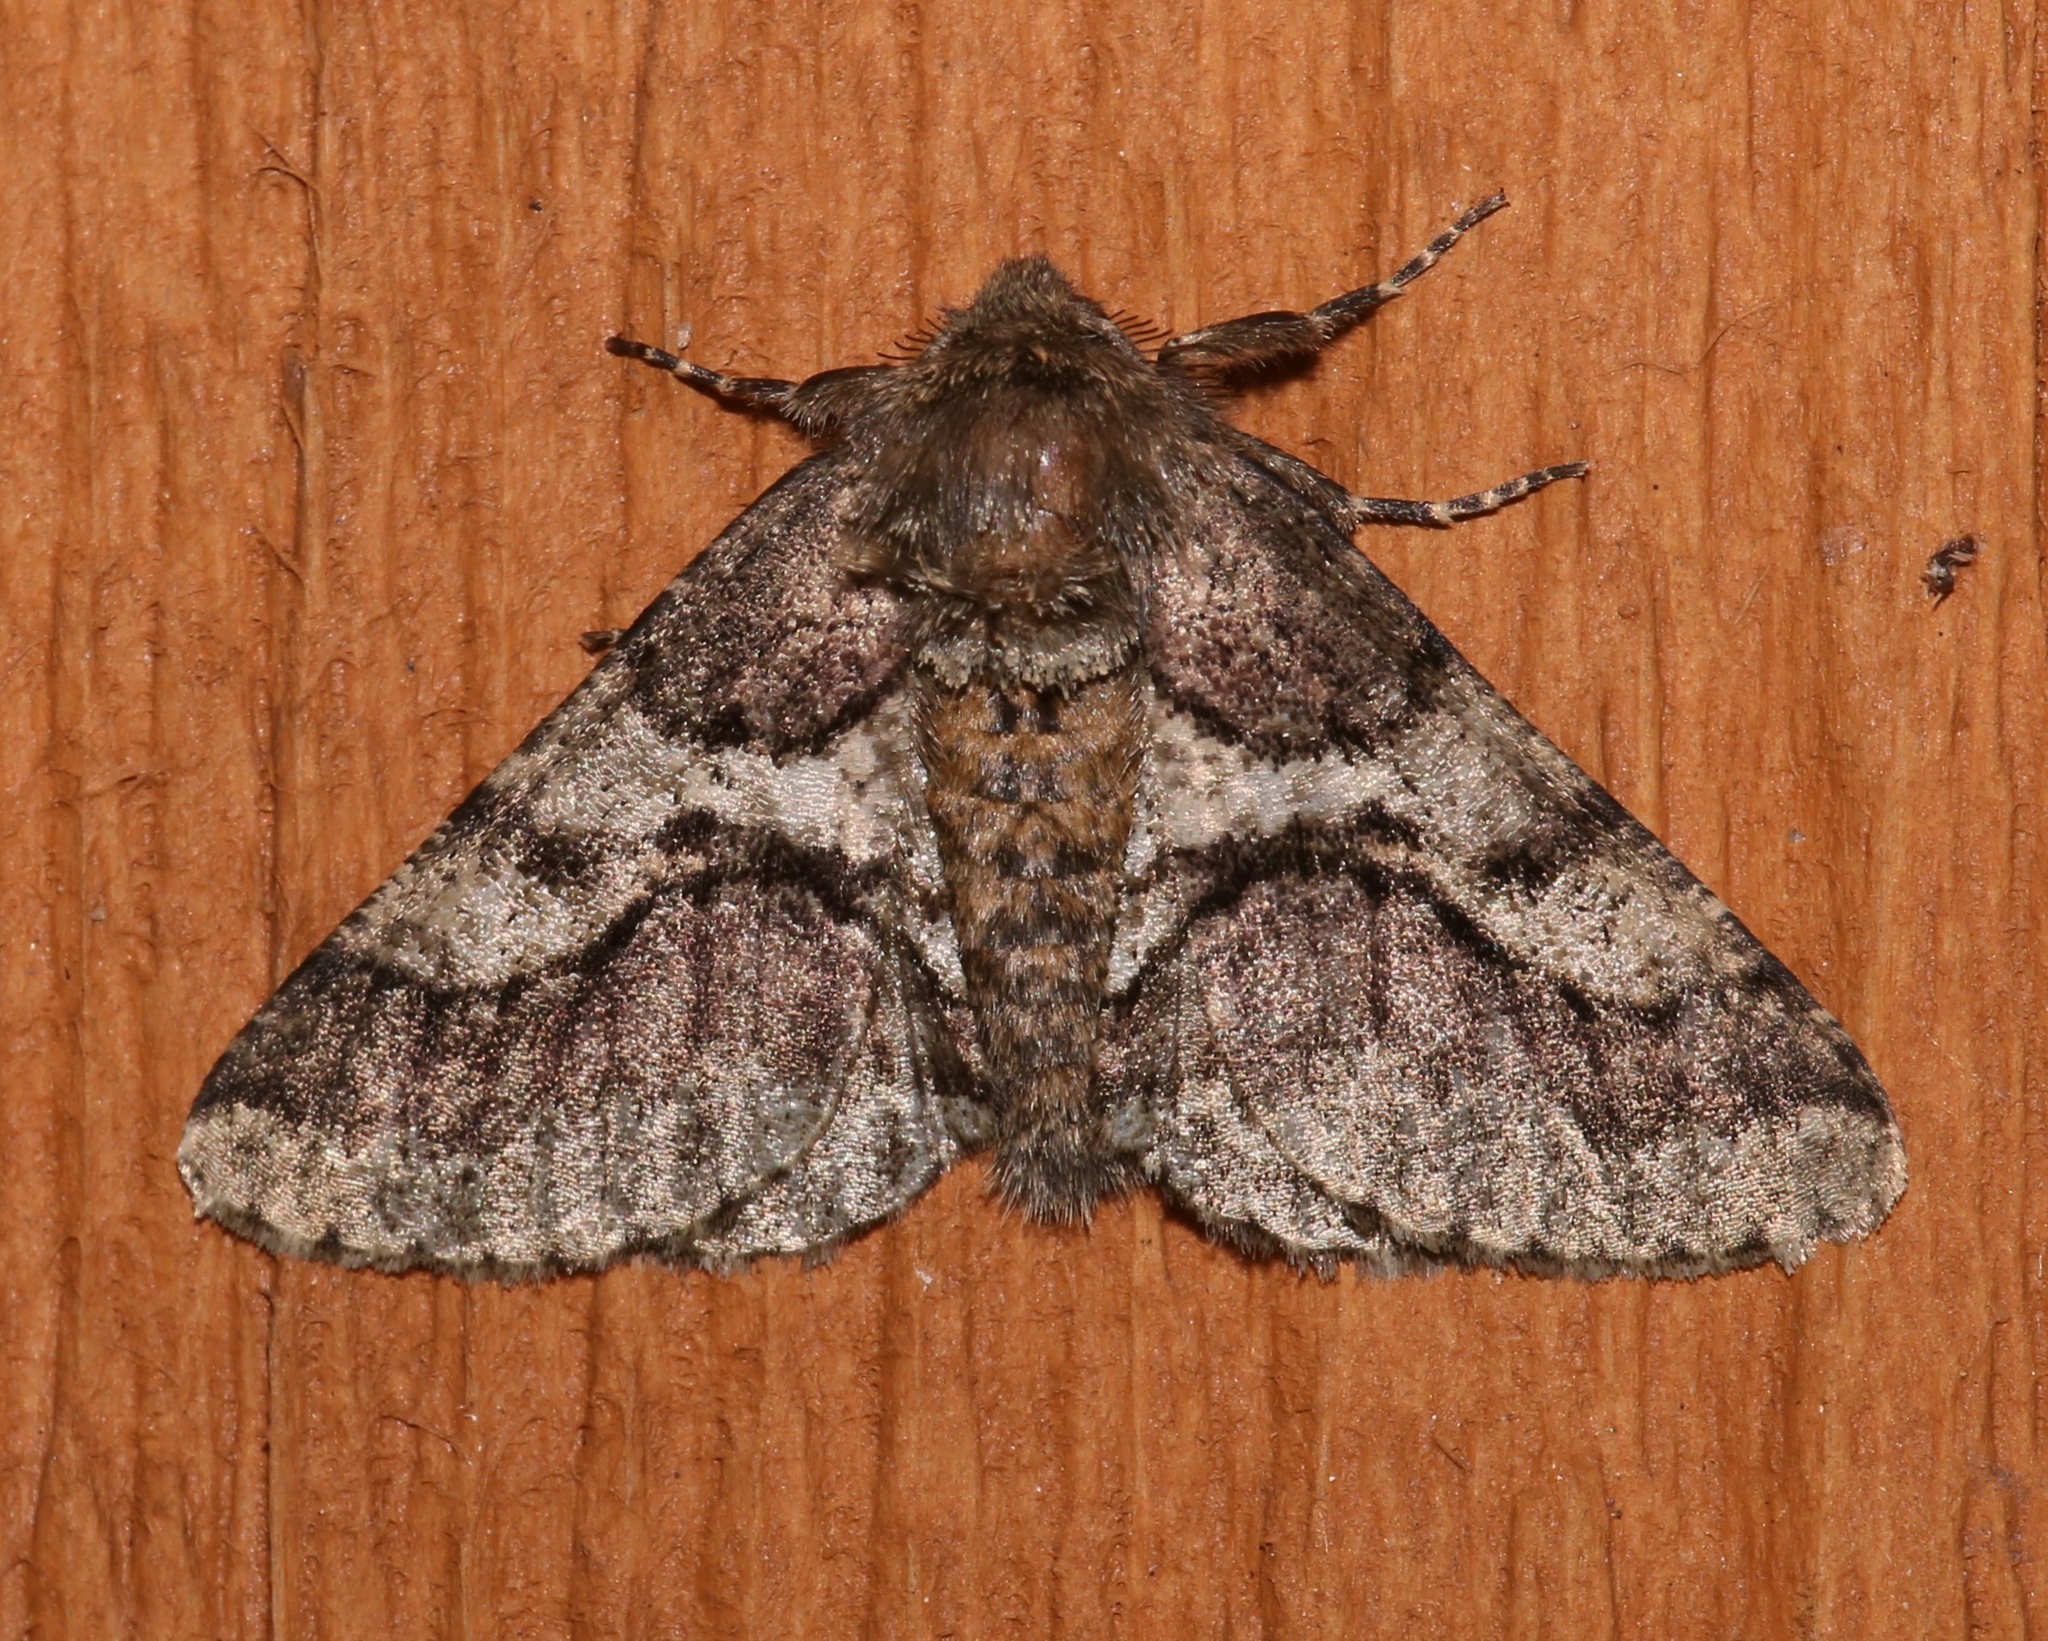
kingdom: Animalia
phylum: Arthropoda
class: Insecta
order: Lepidoptera
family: Geometridae
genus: Lycia
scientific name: Lycia ypsilon
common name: Wooly gray
